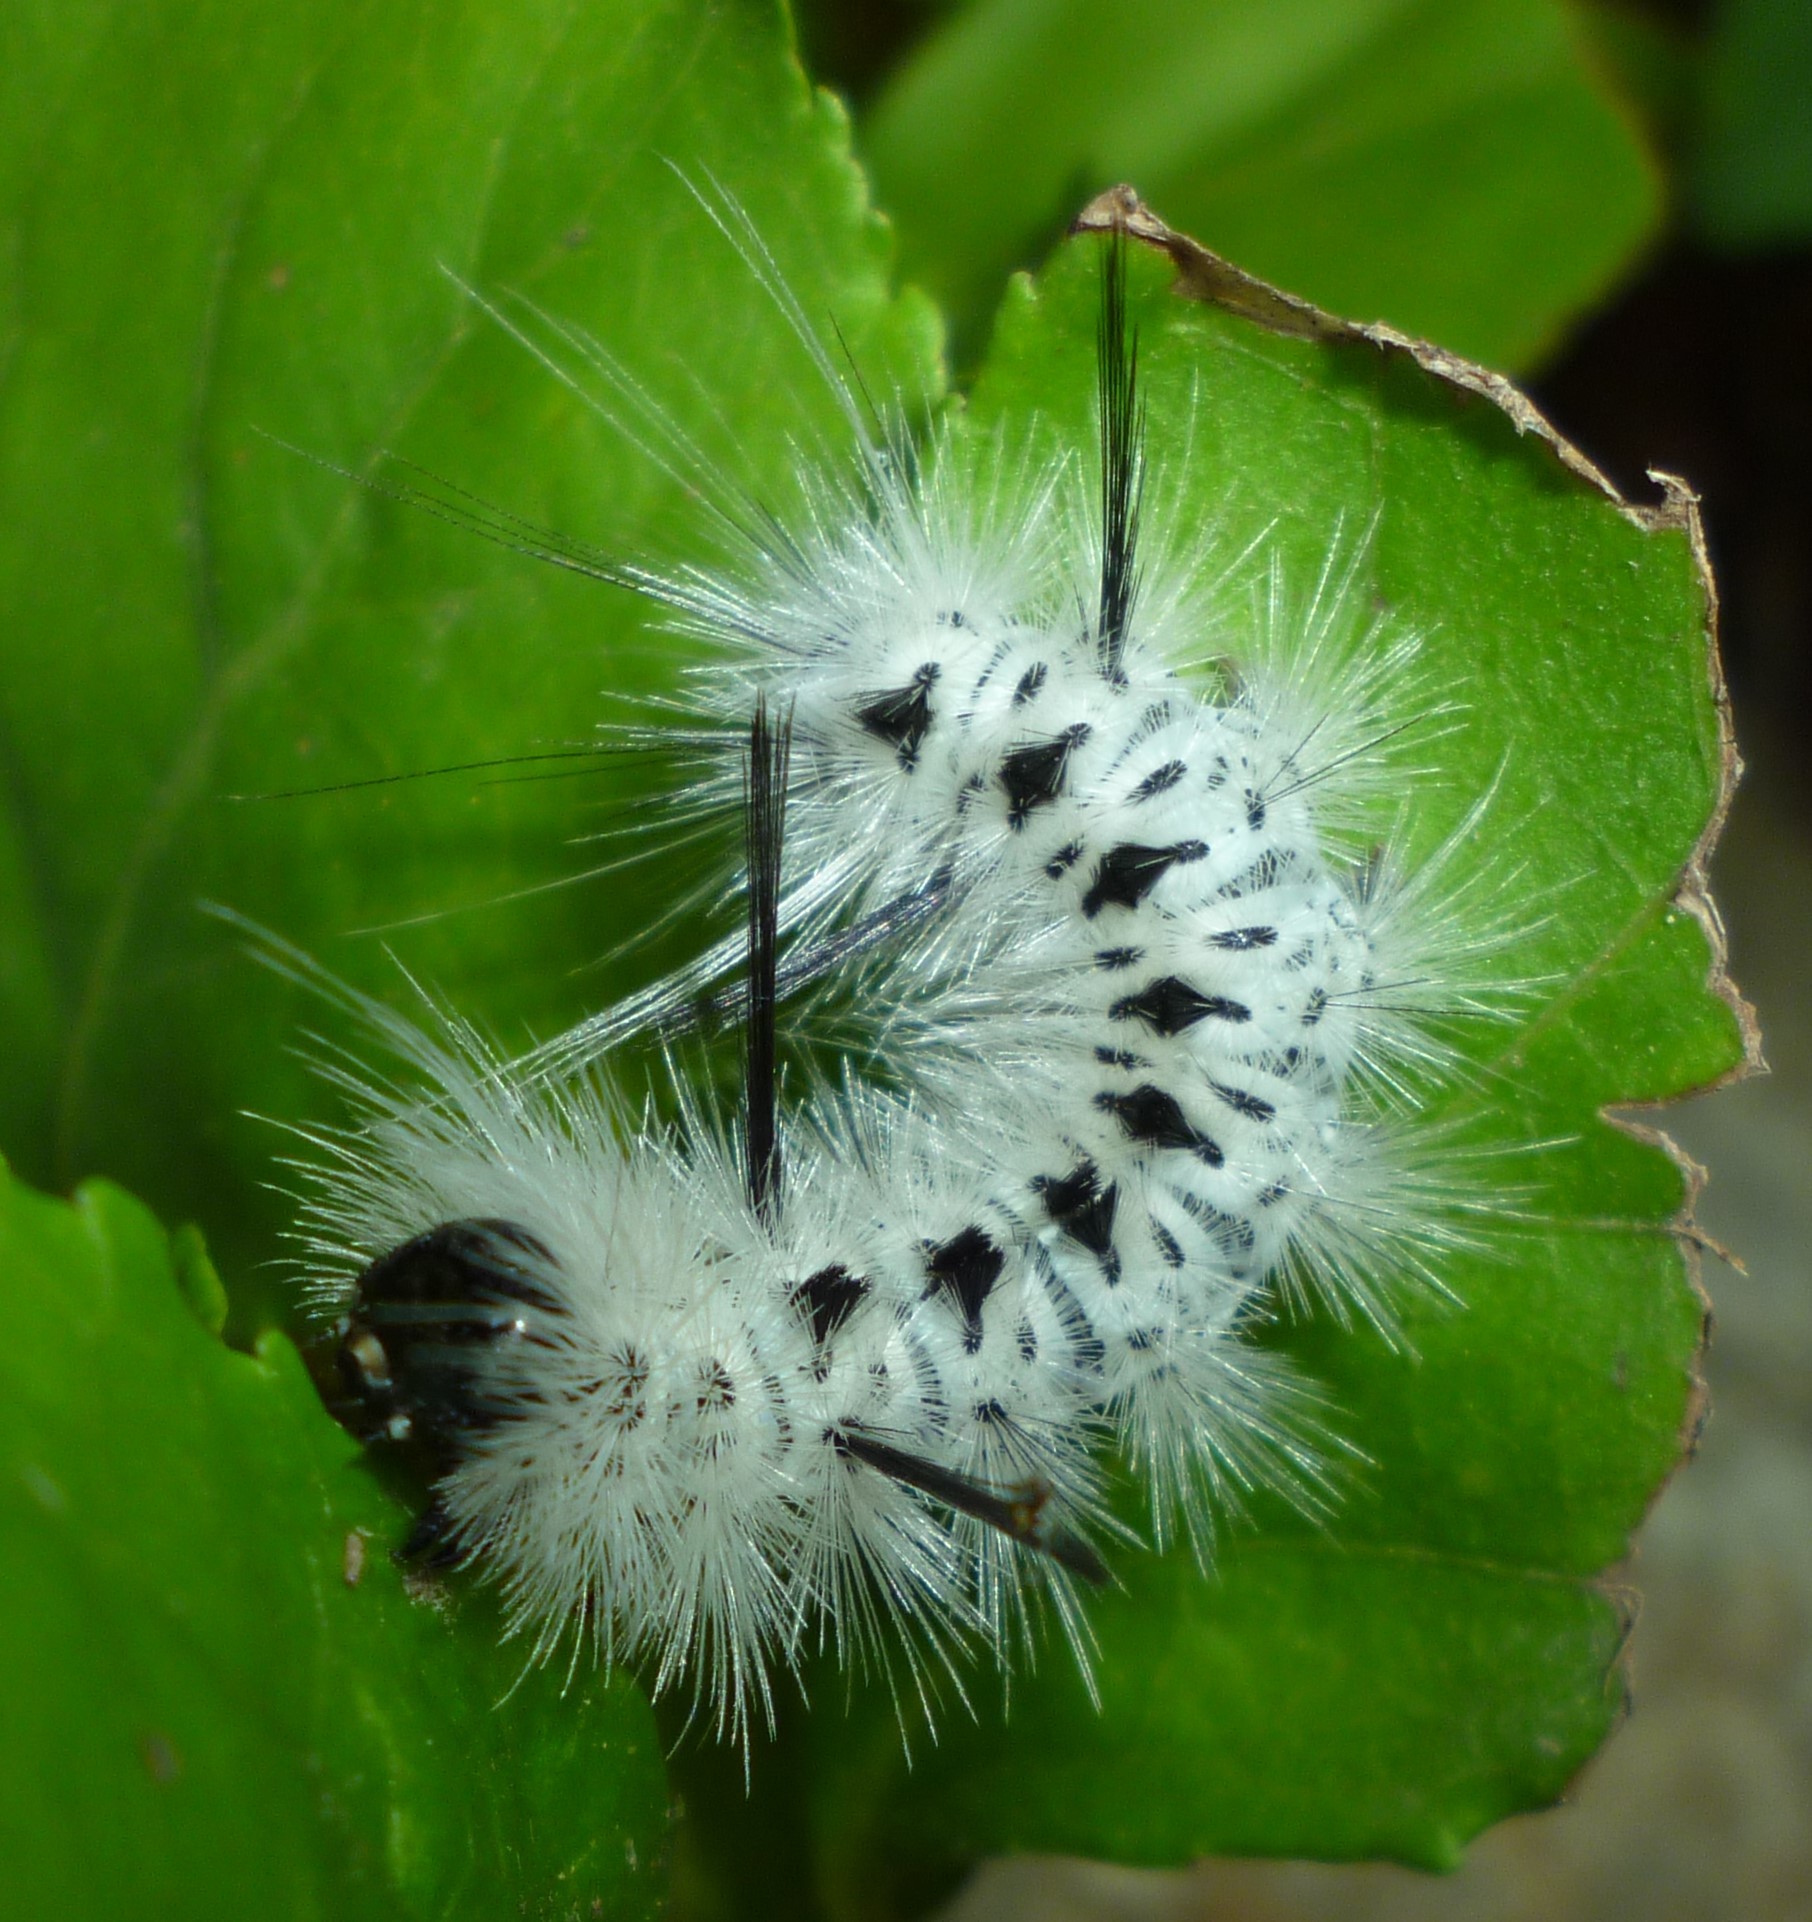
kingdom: Animalia
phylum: Arthropoda
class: Insecta
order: Lepidoptera
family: Erebidae
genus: Lophocampa
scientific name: Lophocampa caryae
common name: Hickory tussock moth
